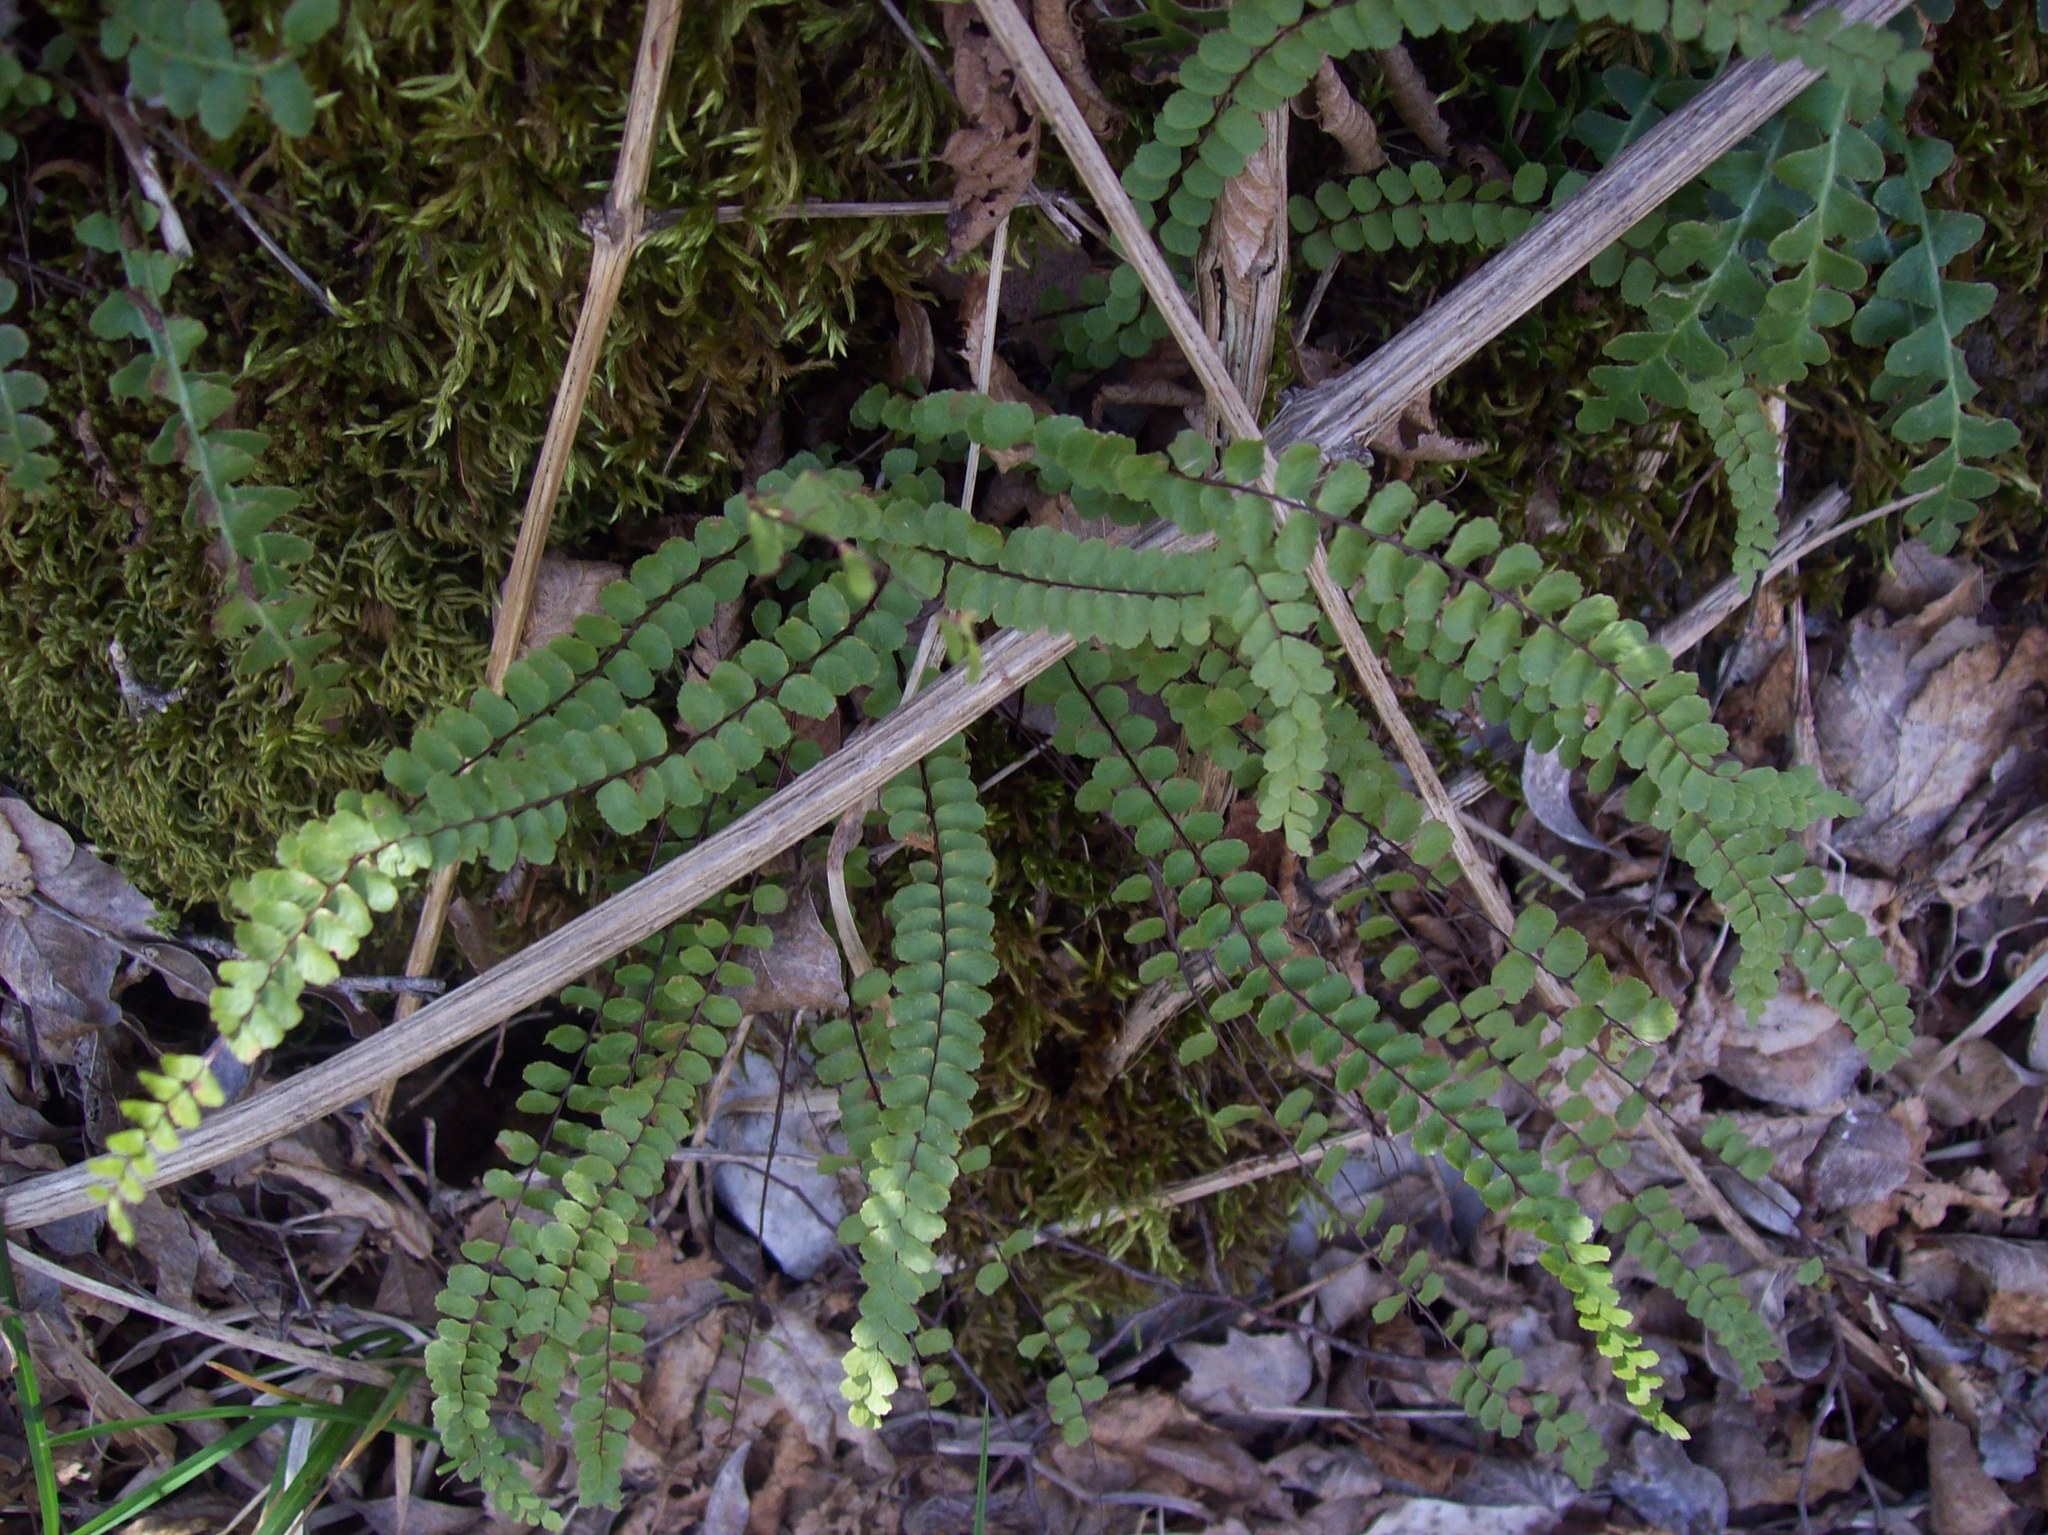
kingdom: Plantae
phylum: Tracheophyta
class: Polypodiopsida
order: Polypodiales
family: Aspleniaceae
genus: Asplenium
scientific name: Asplenium trichomanes
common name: Maidenhair spleenwort
